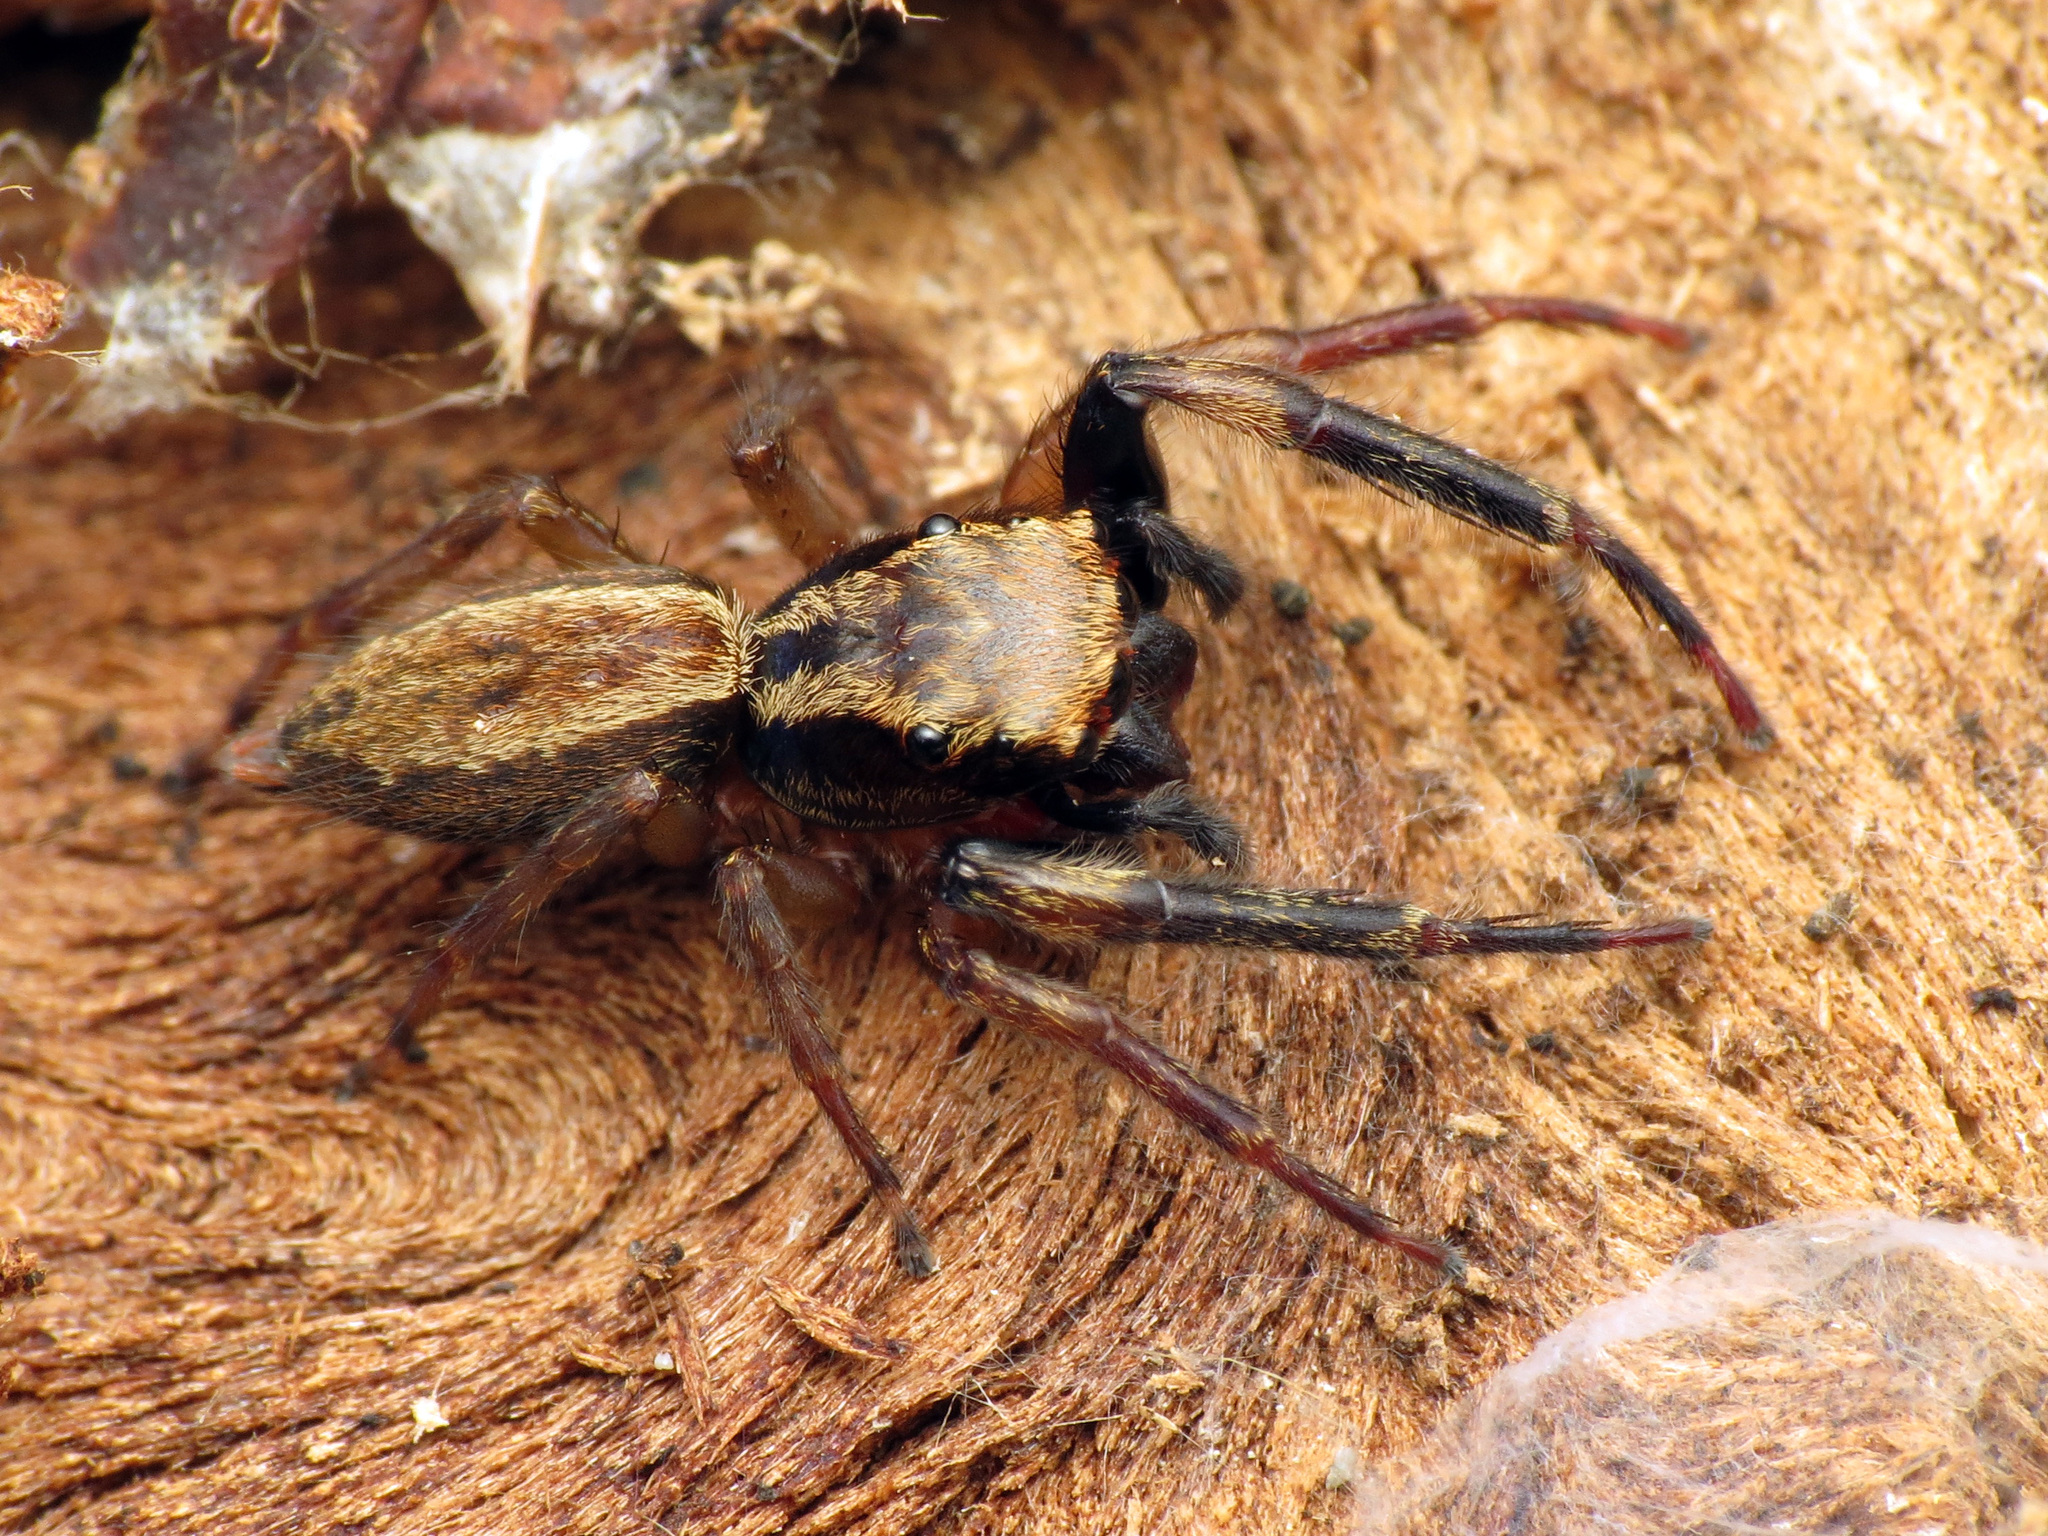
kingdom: Animalia
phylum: Arthropoda
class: Arachnida
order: Araneae
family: Salticidae
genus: Trite
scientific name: Trite auricoma
